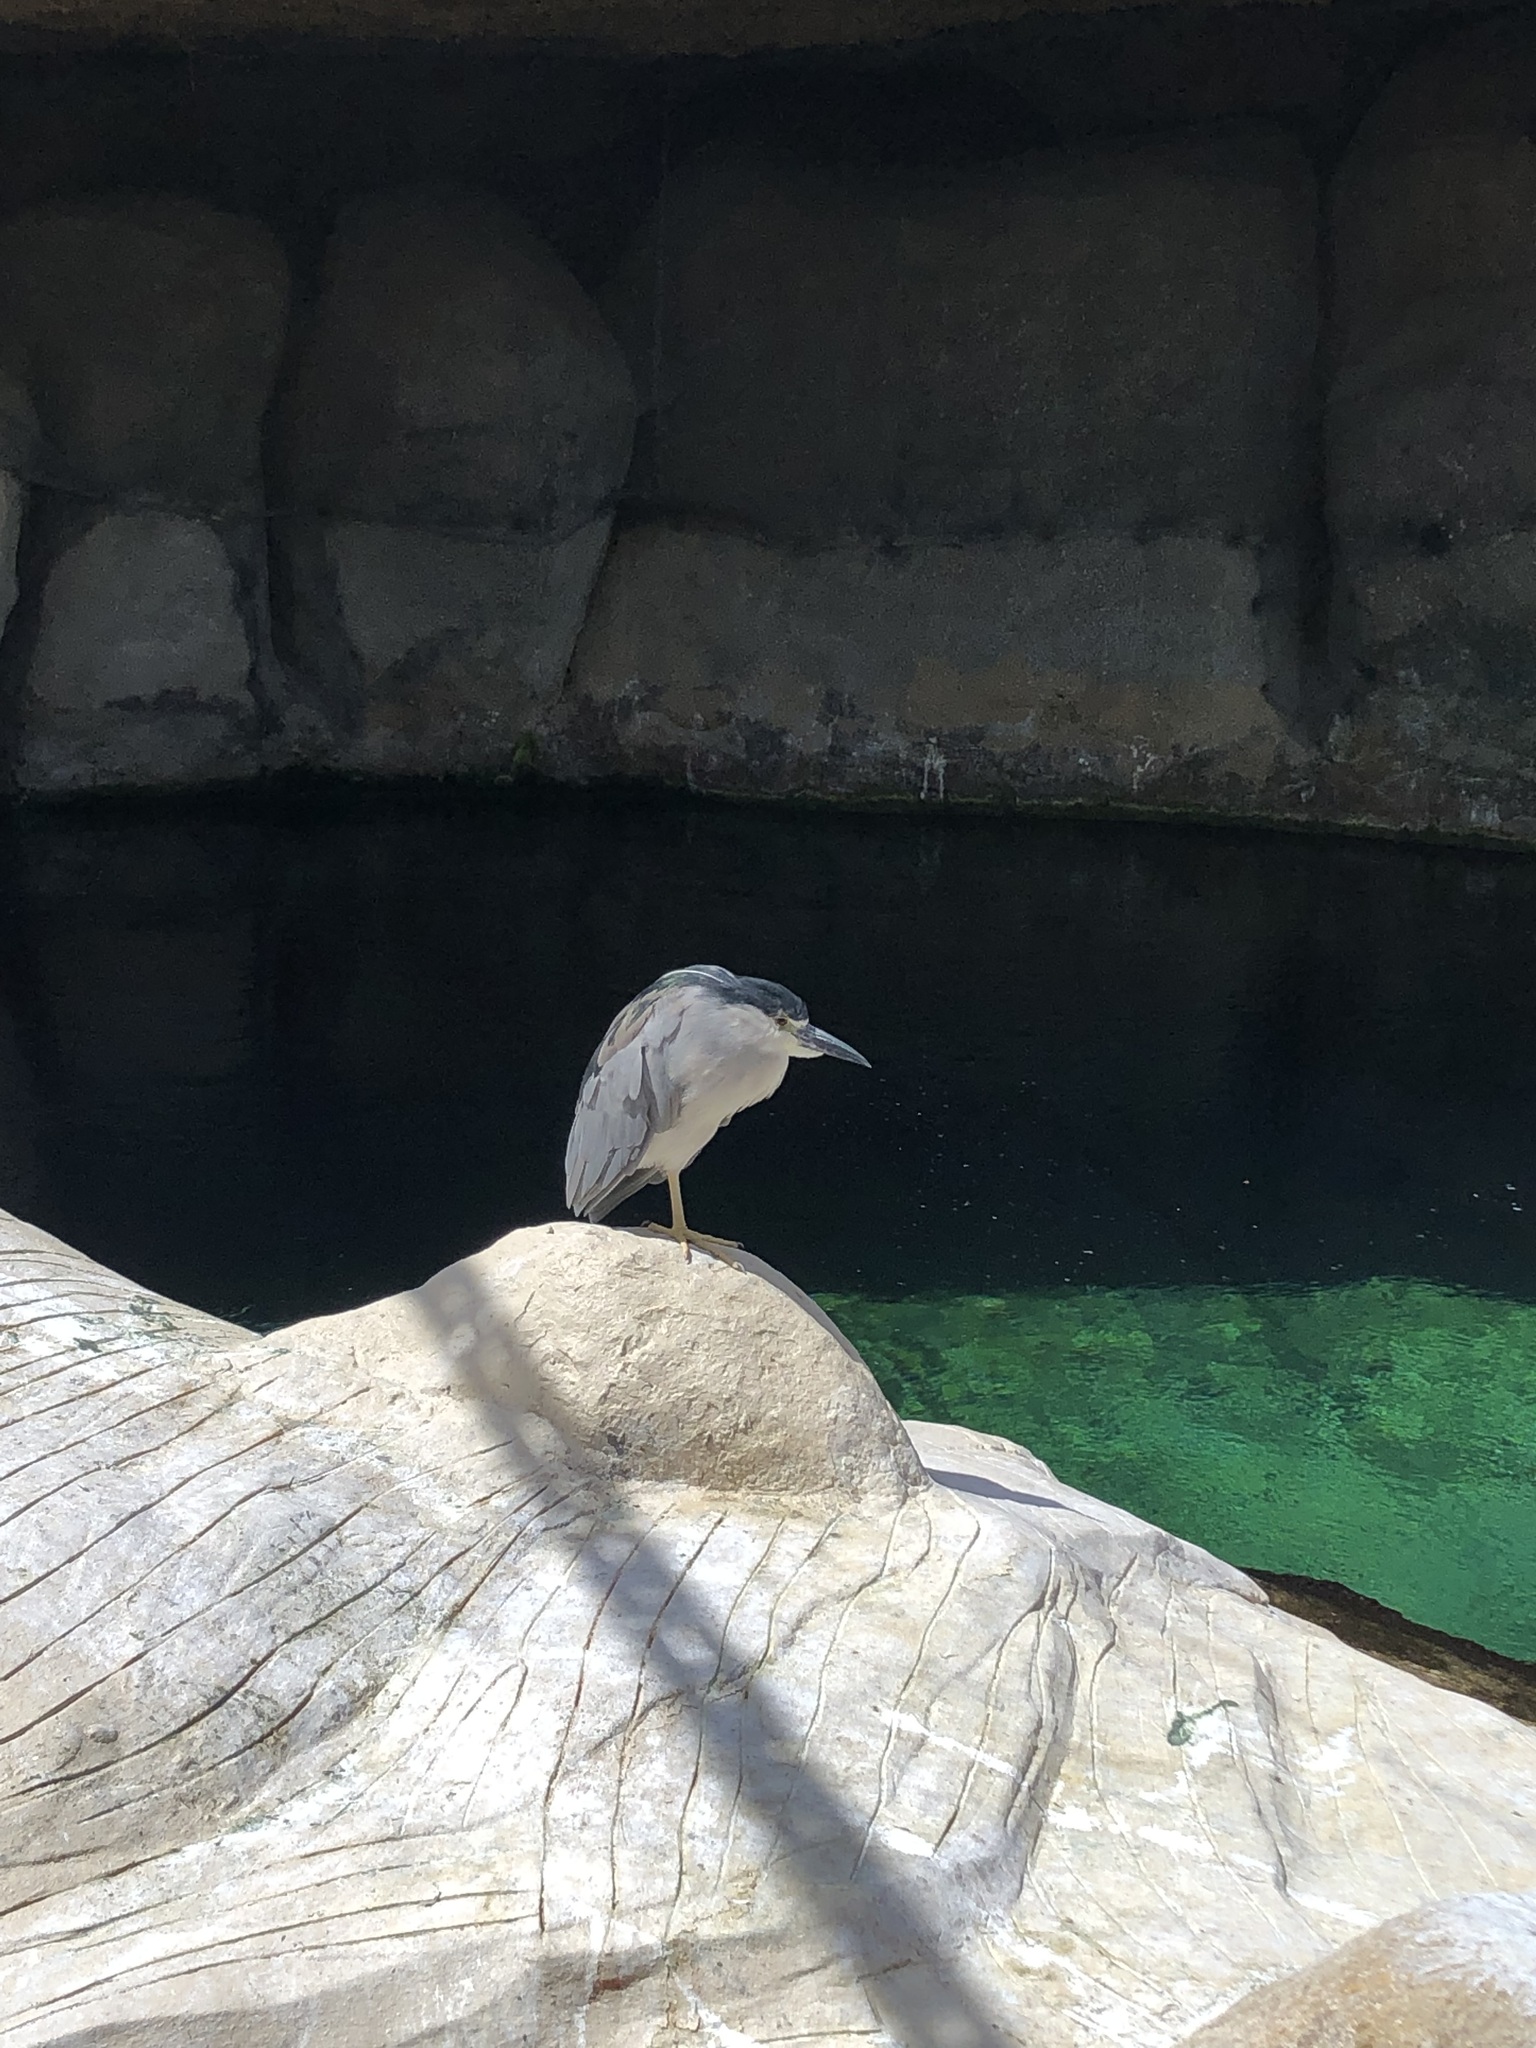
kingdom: Animalia
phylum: Chordata
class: Aves
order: Pelecaniformes
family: Ardeidae
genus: Nycticorax
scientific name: Nycticorax nycticorax
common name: Black-crowned night heron
